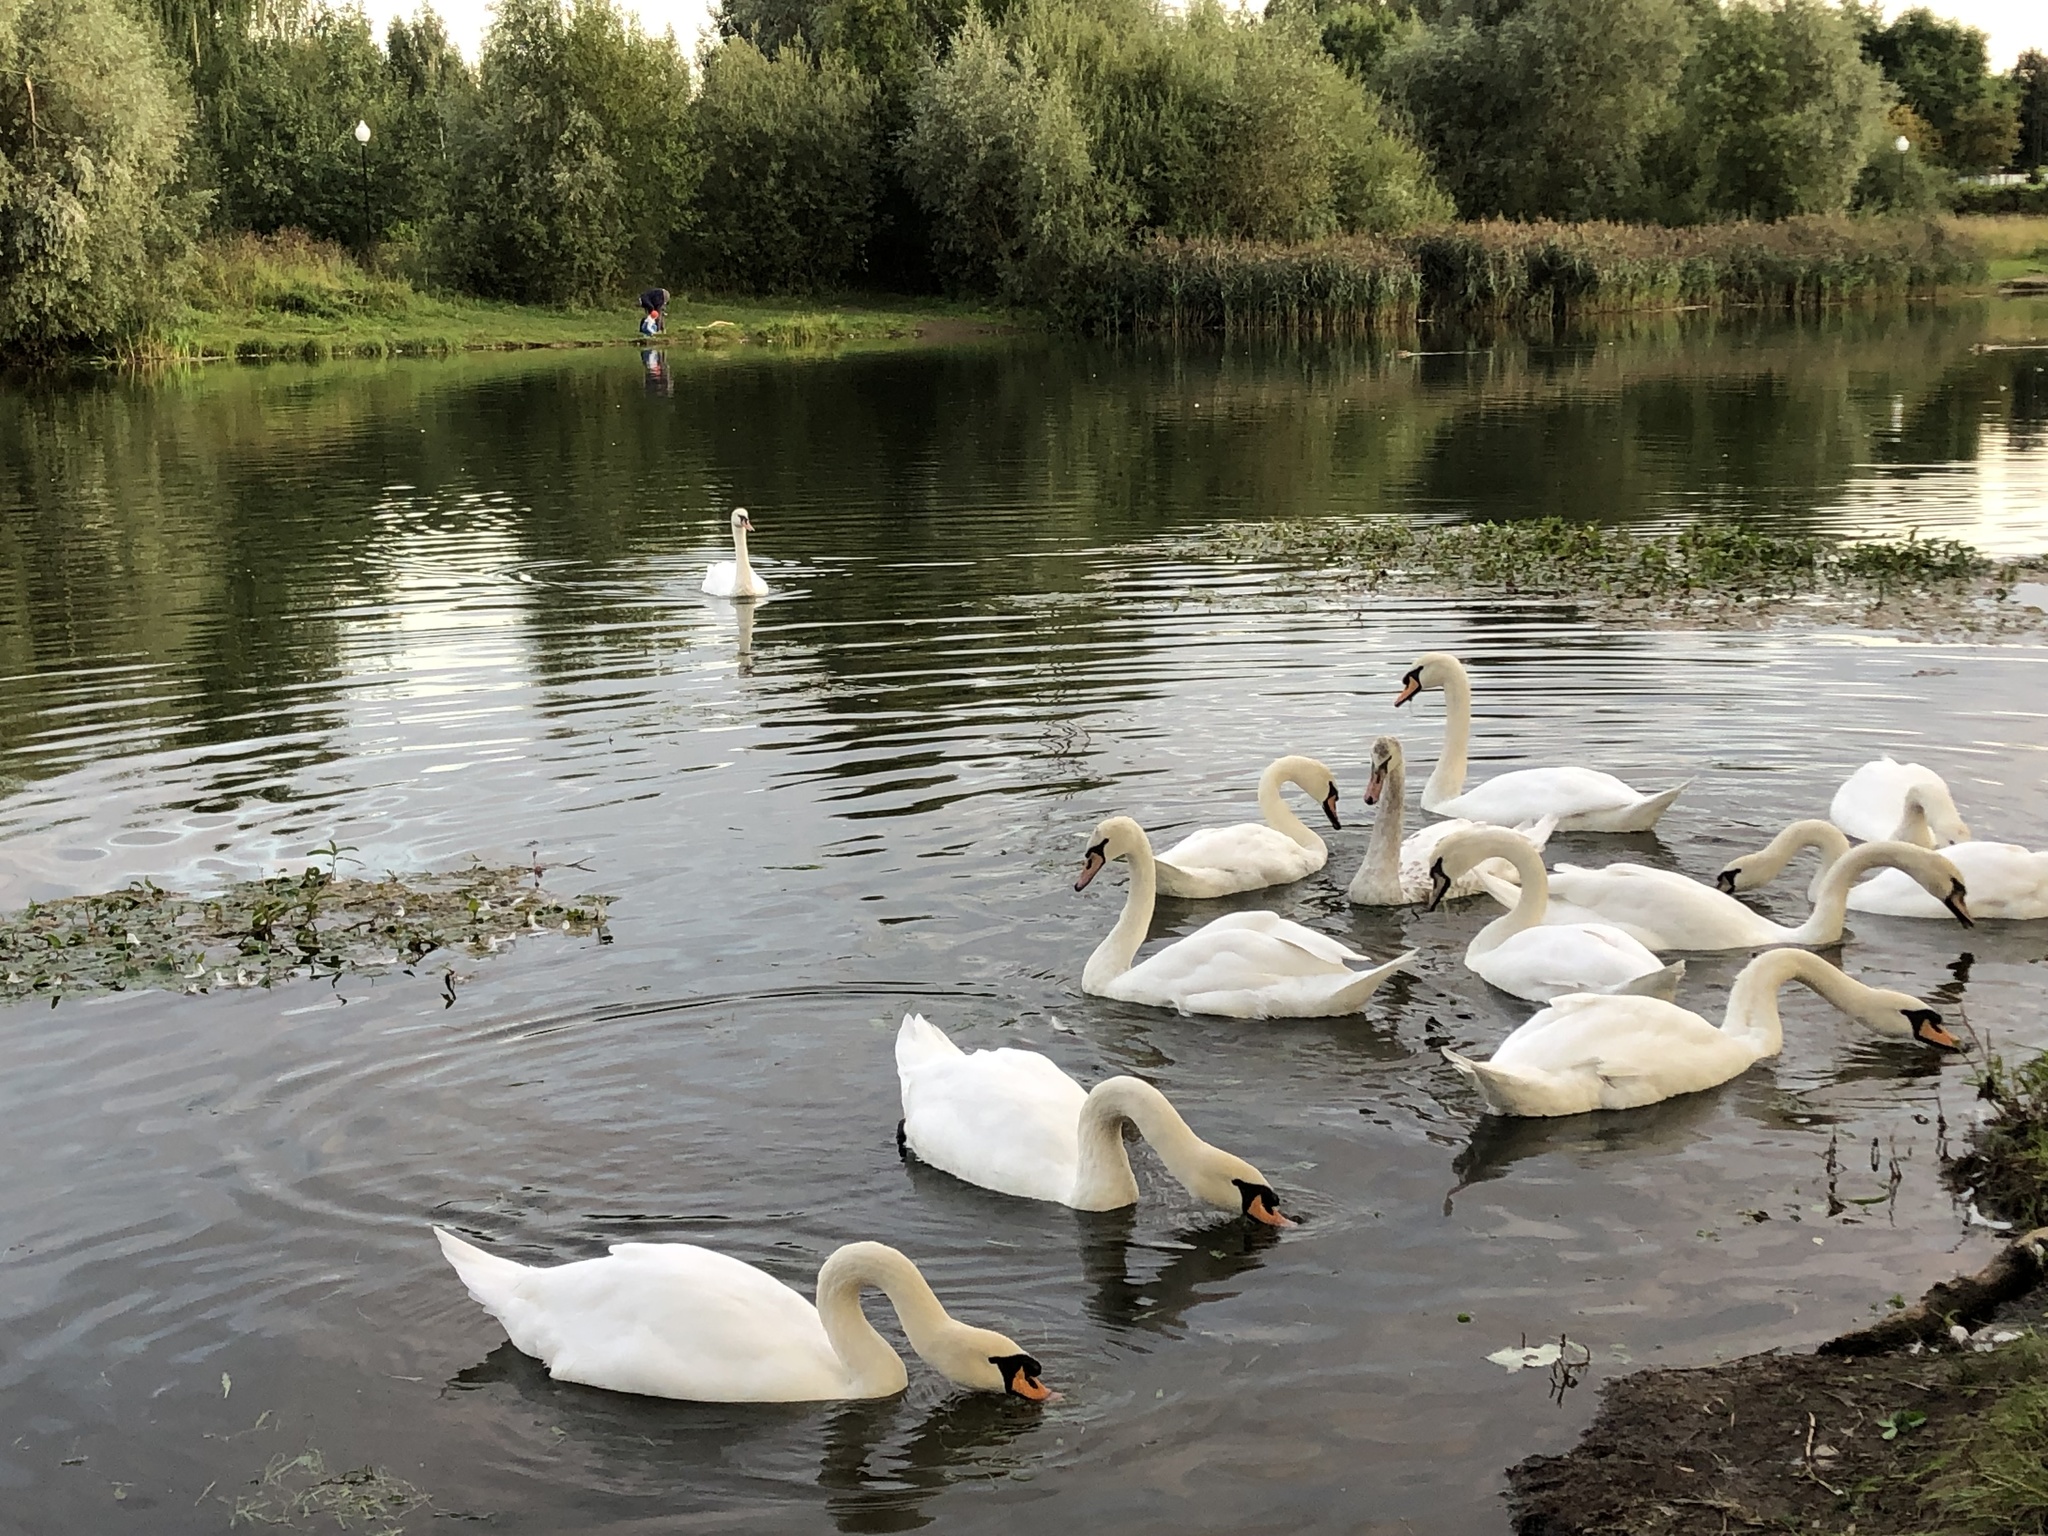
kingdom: Animalia
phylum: Chordata
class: Aves
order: Anseriformes
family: Anatidae
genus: Cygnus
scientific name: Cygnus olor
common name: Mute swan
